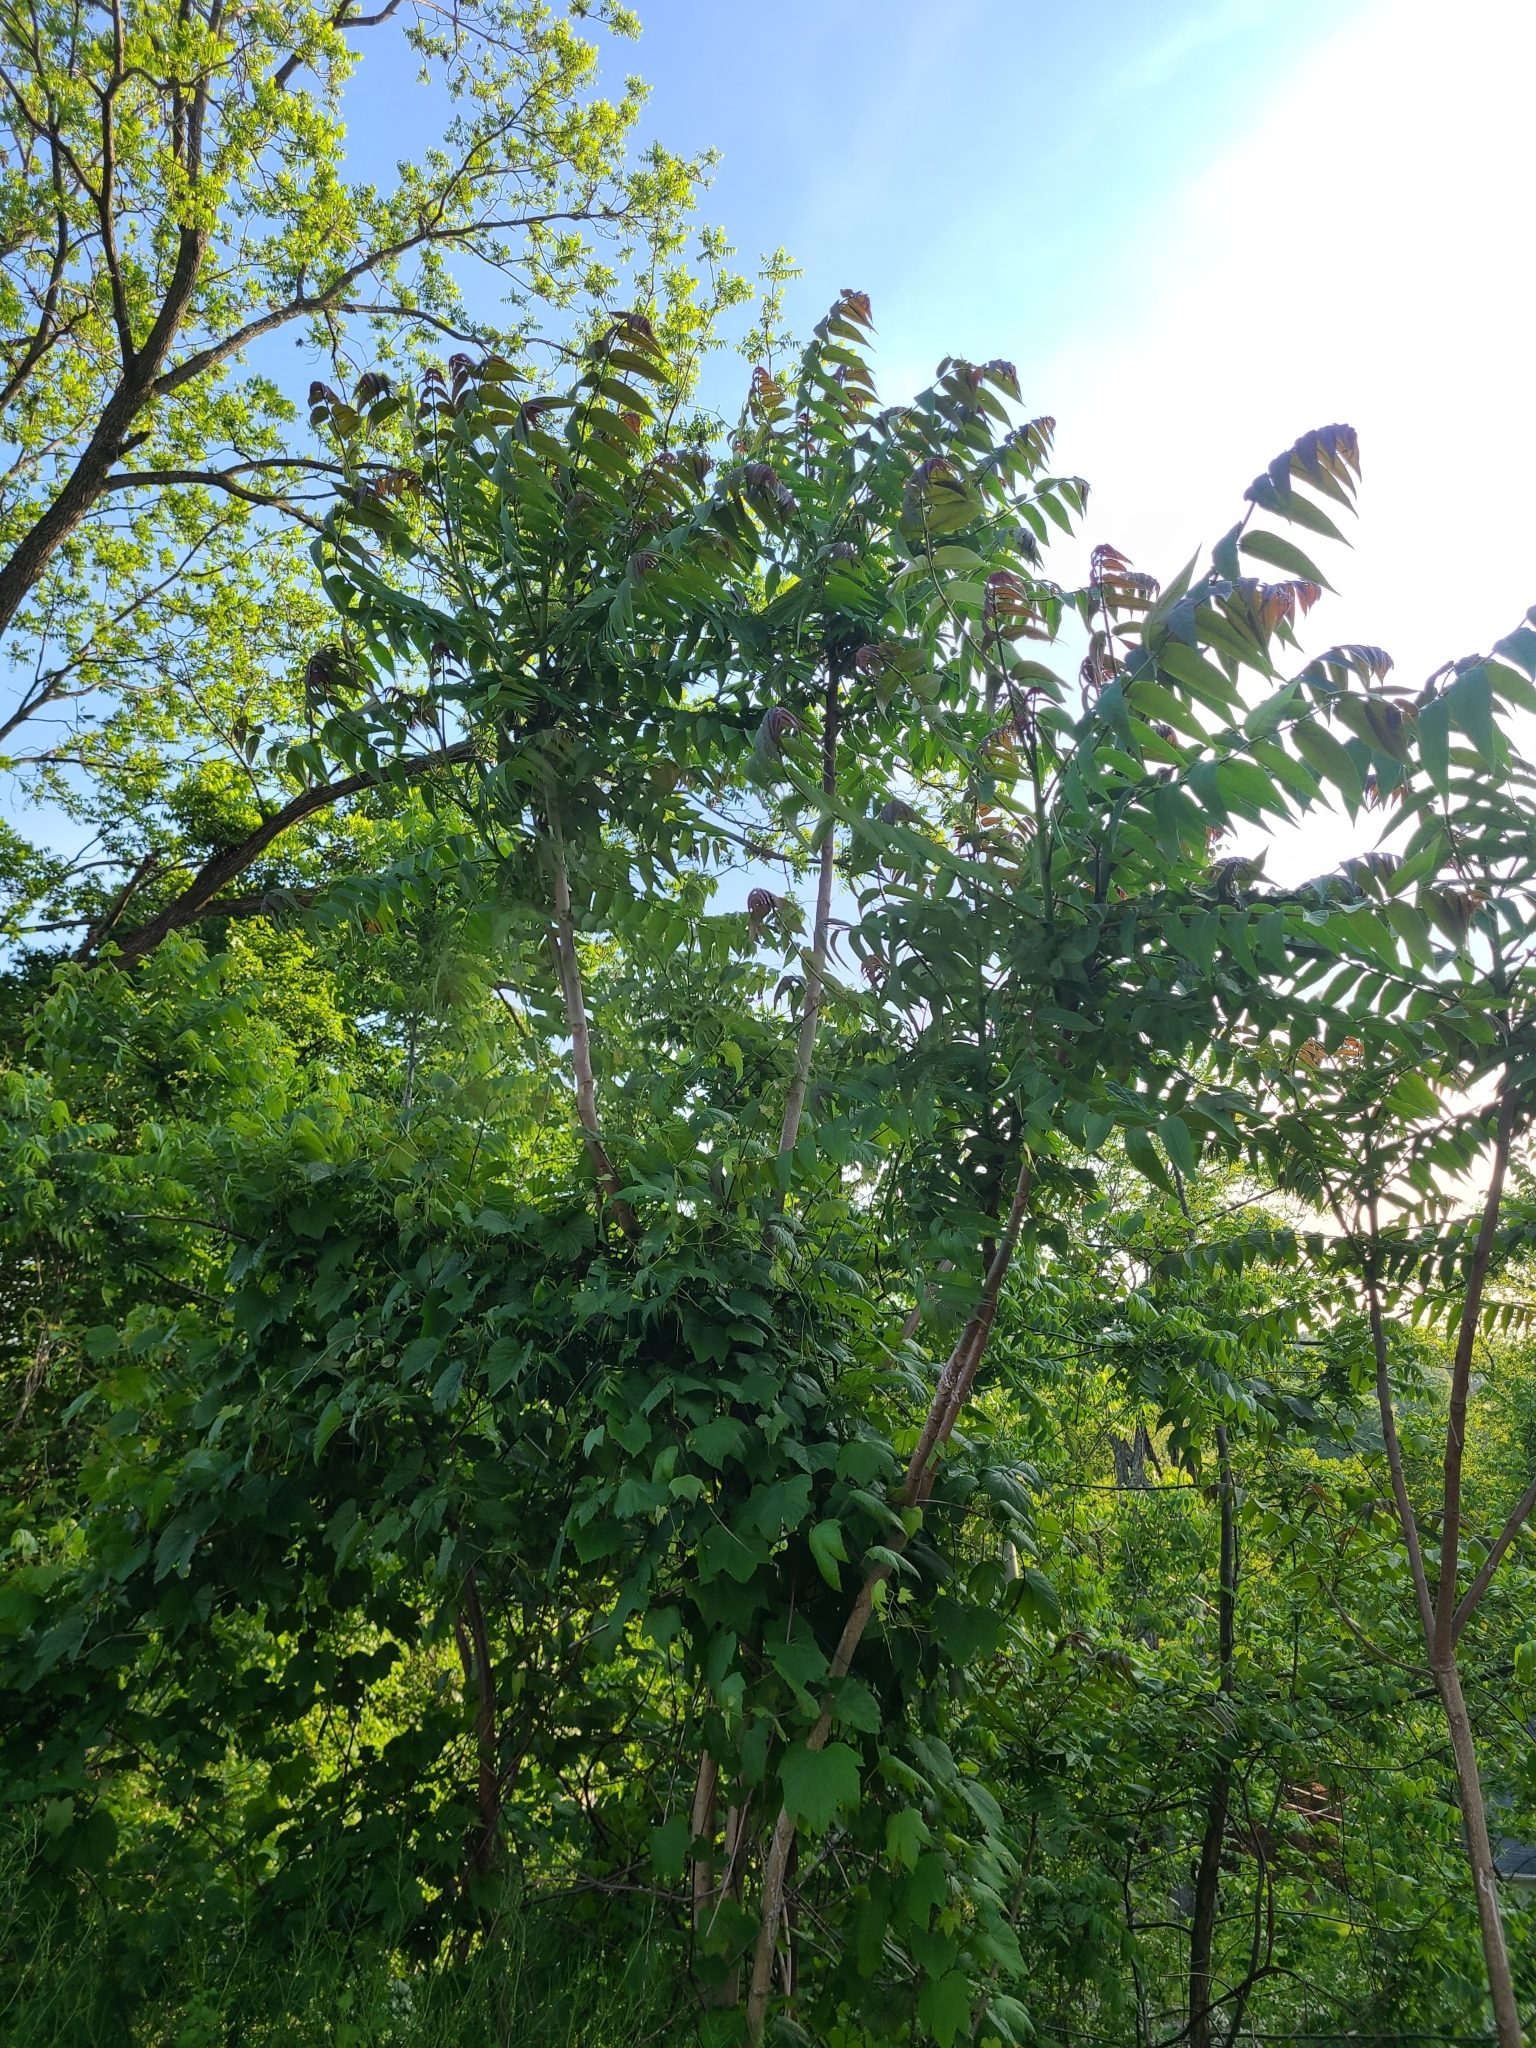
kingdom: Plantae
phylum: Tracheophyta
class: Magnoliopsida
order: Sapindales
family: Simaroubaceae
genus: Ailanthus
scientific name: Ailanthus altissima
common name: Tree-of-heaven
